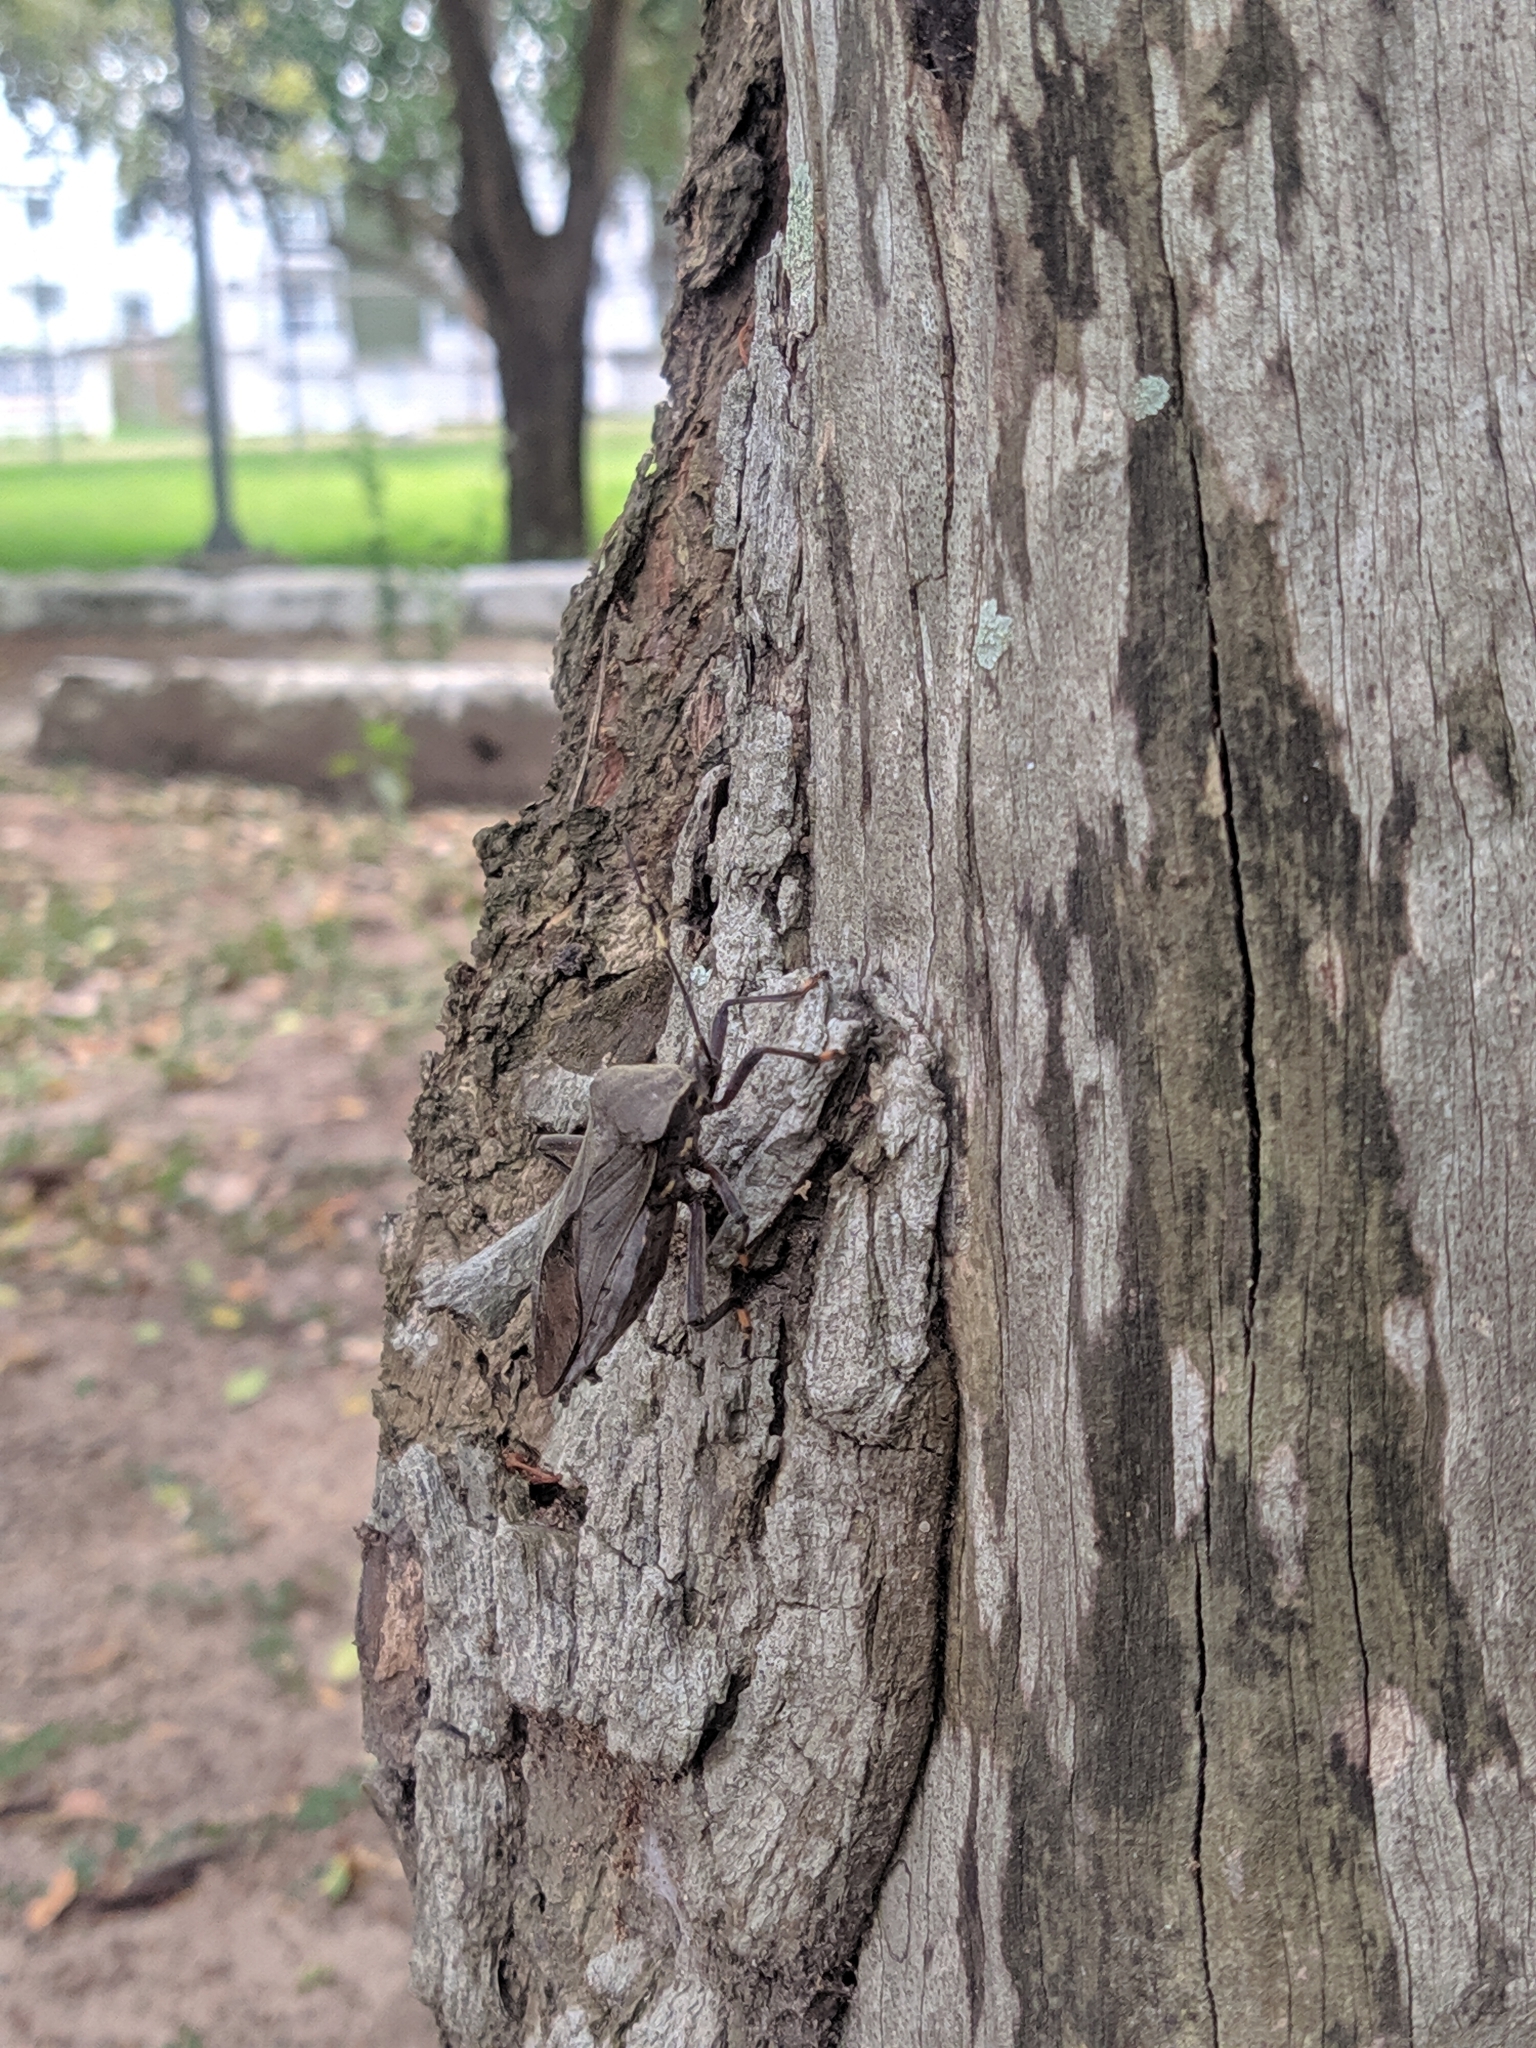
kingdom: Animalia
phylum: Arthropoda
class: Insecta
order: Hemiptera
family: Coreidae
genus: Pachylis
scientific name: Pachylis laticornis
